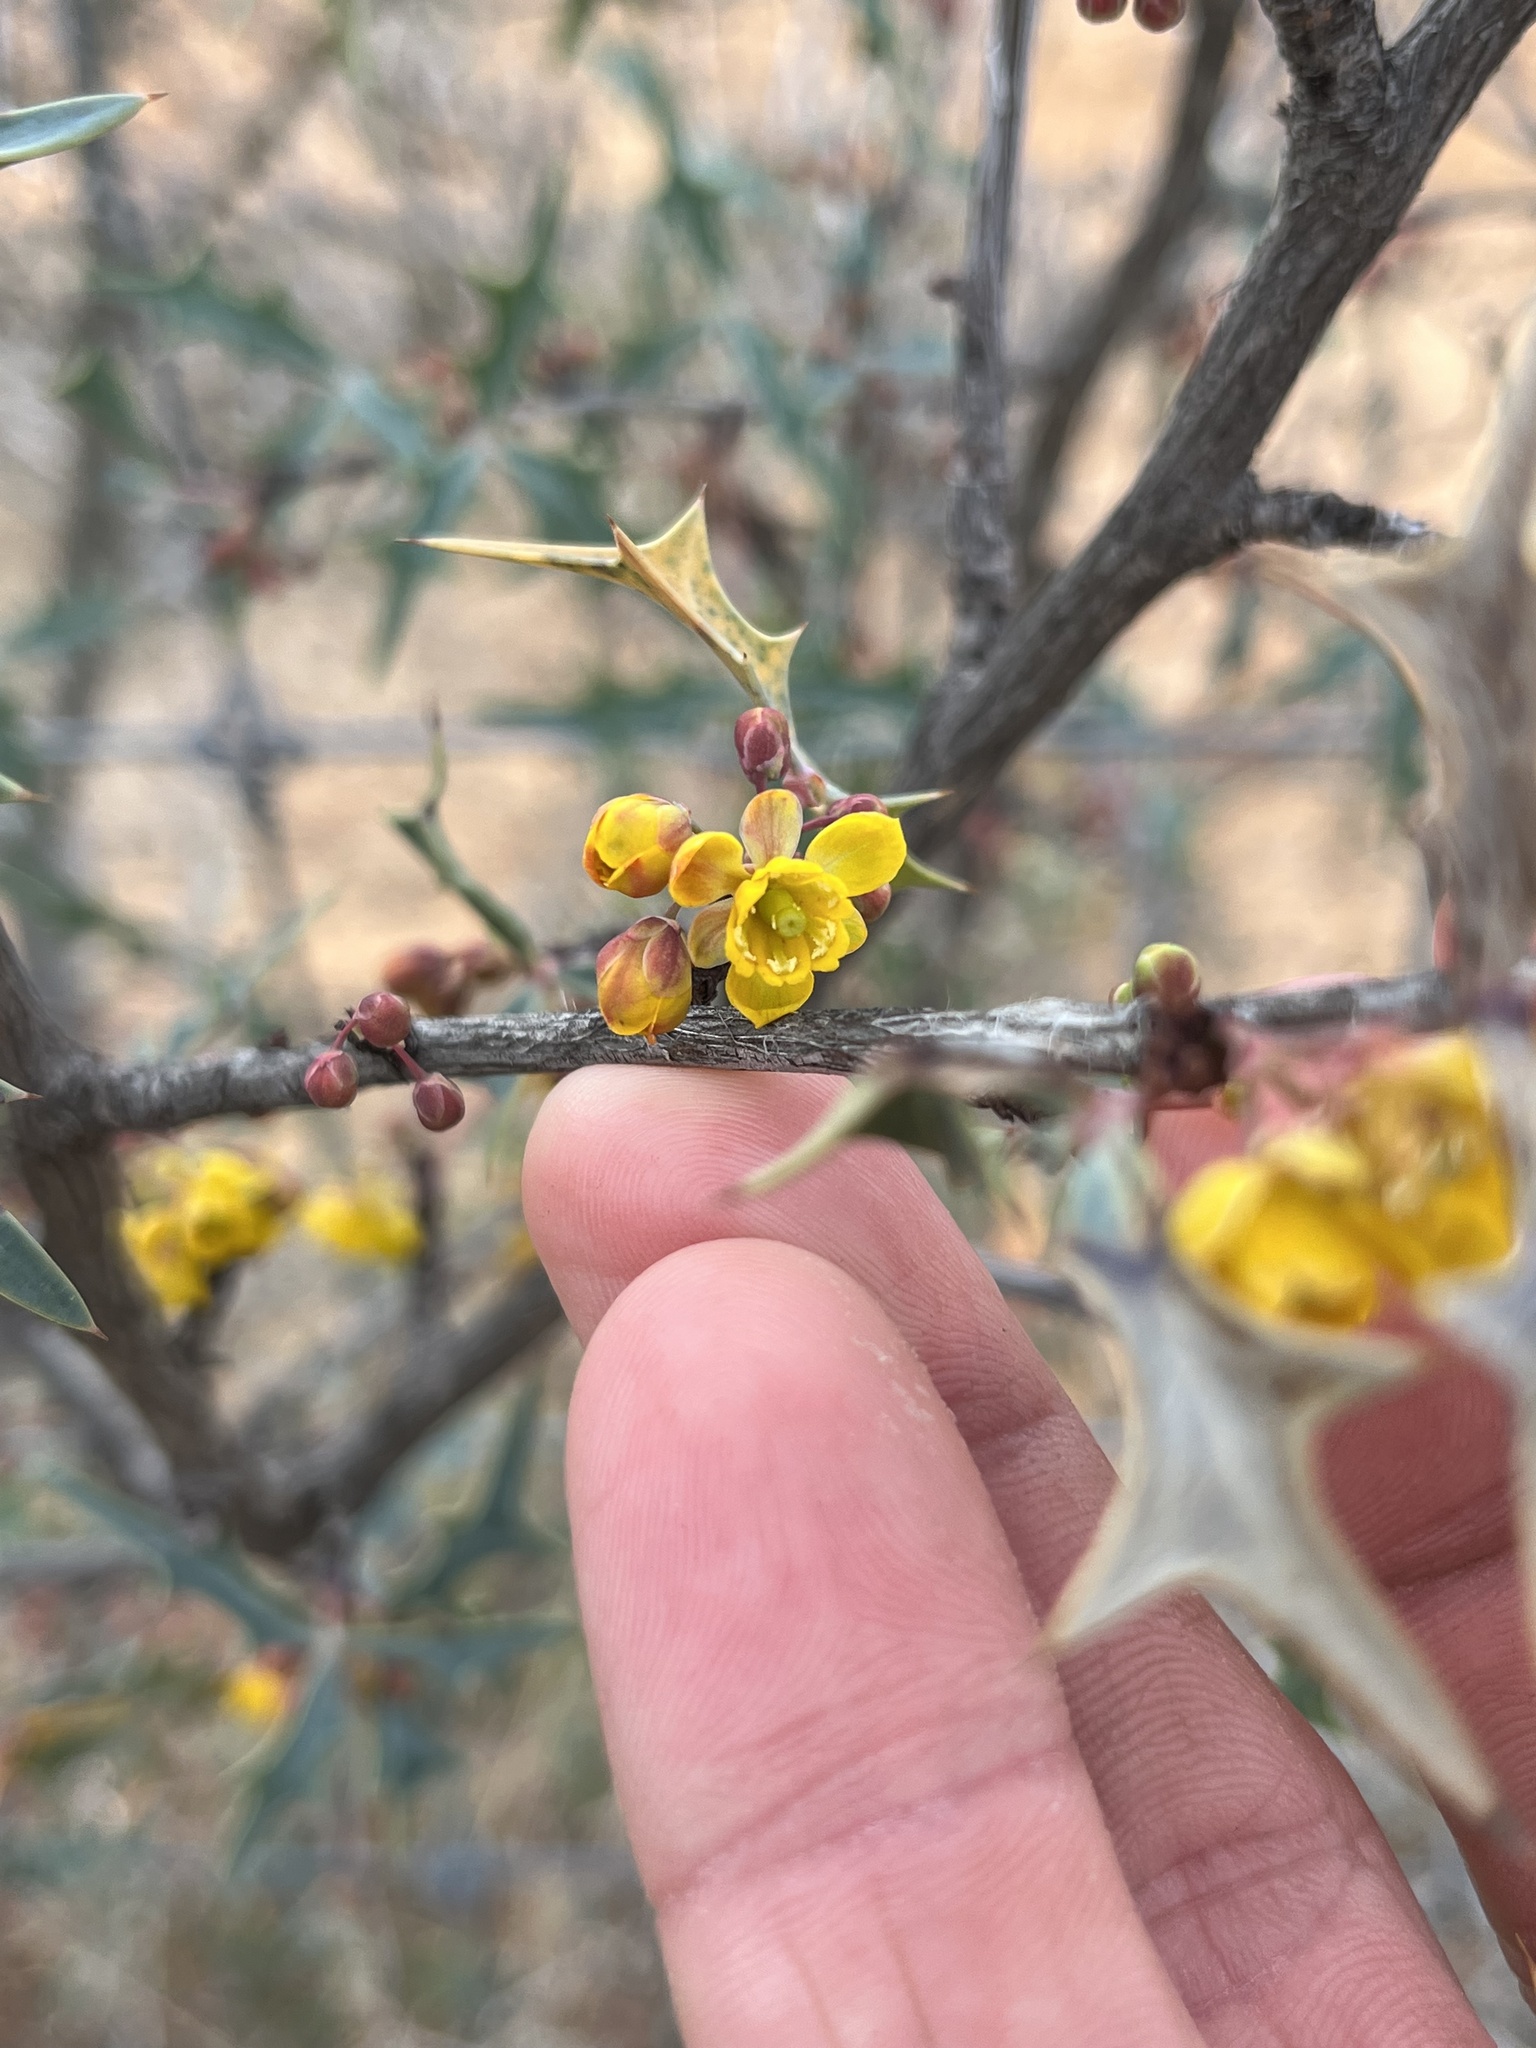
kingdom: Plantae
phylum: Tracheophyta
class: Magnoliopsida
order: Ranunculales
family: Berberidaceae
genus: Alloberberis
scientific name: Alloberberis trifoliolata
